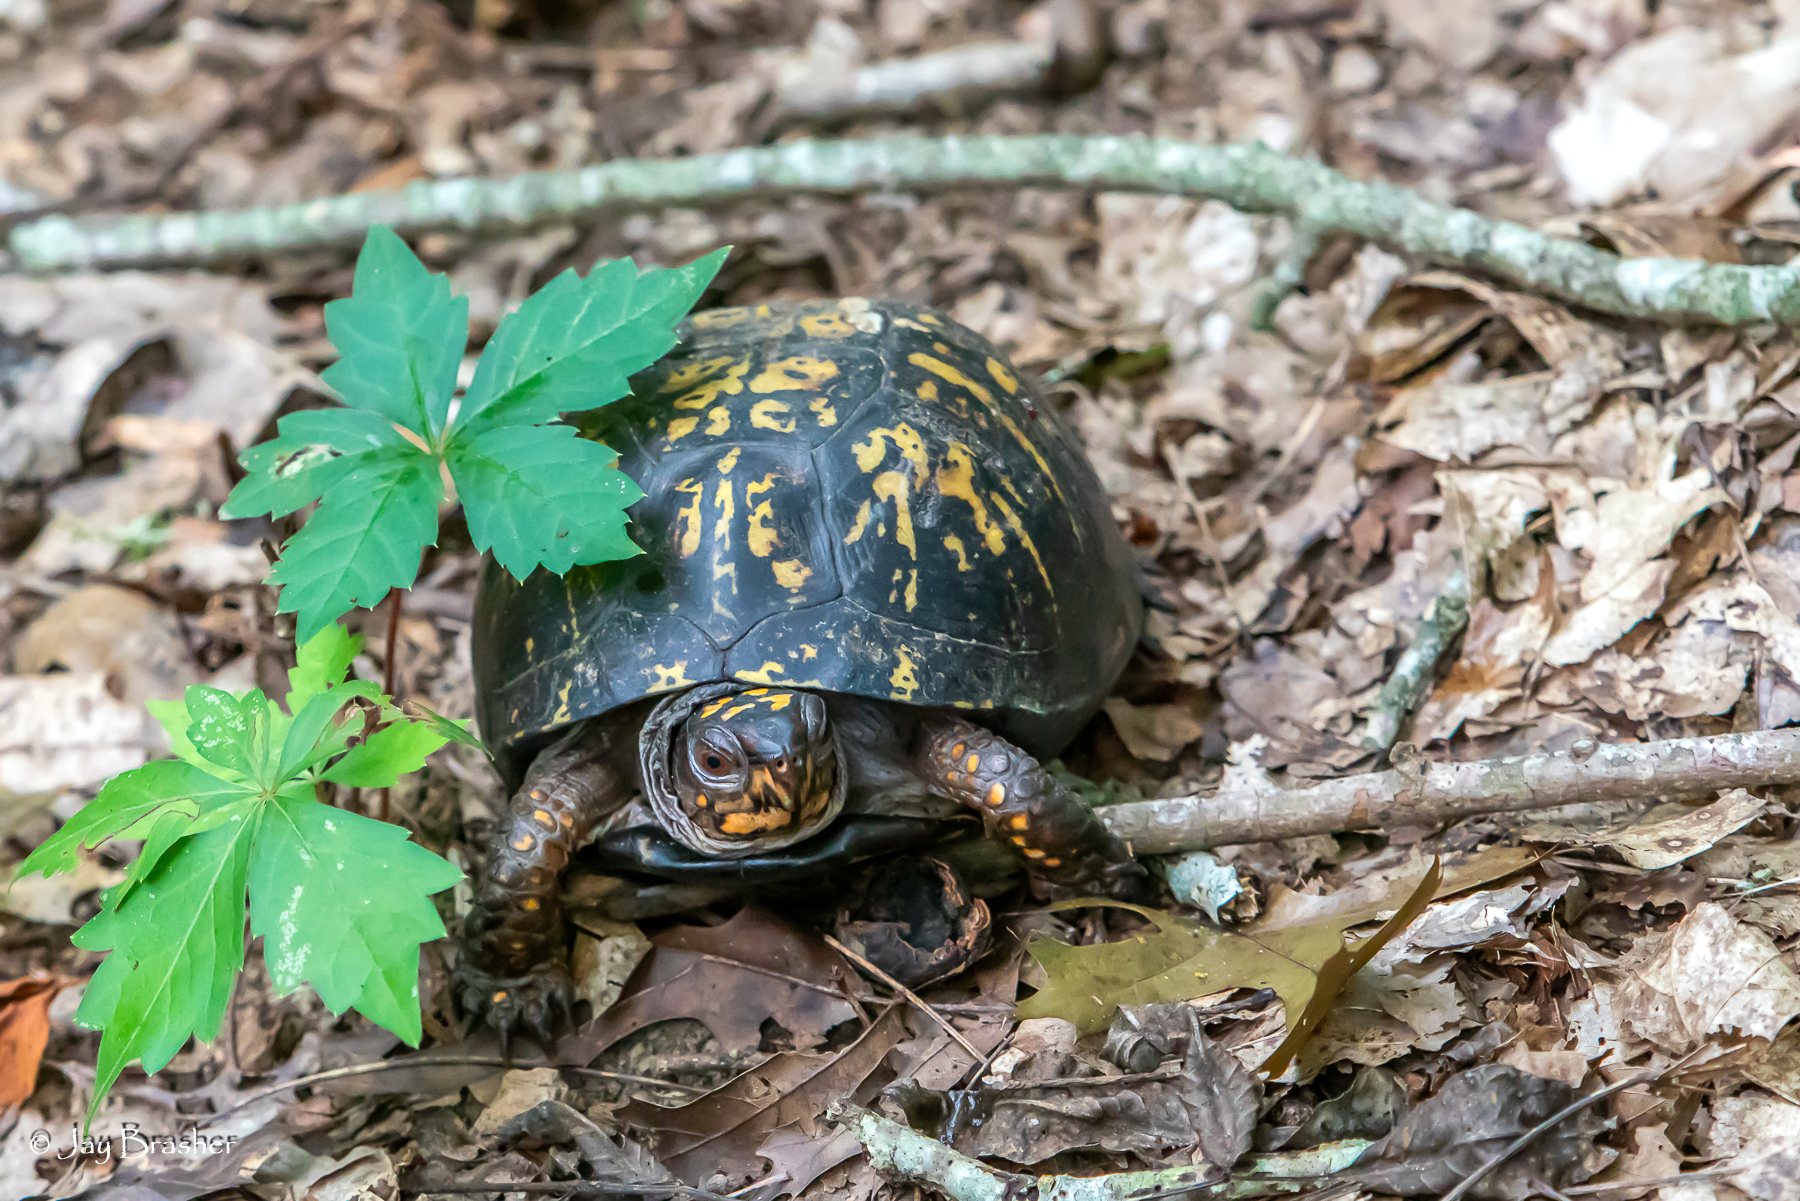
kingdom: Animalia
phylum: Chordata
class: Testudines
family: Emydidae
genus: Terrapene
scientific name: Terrapene carolina
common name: Common box turtle
